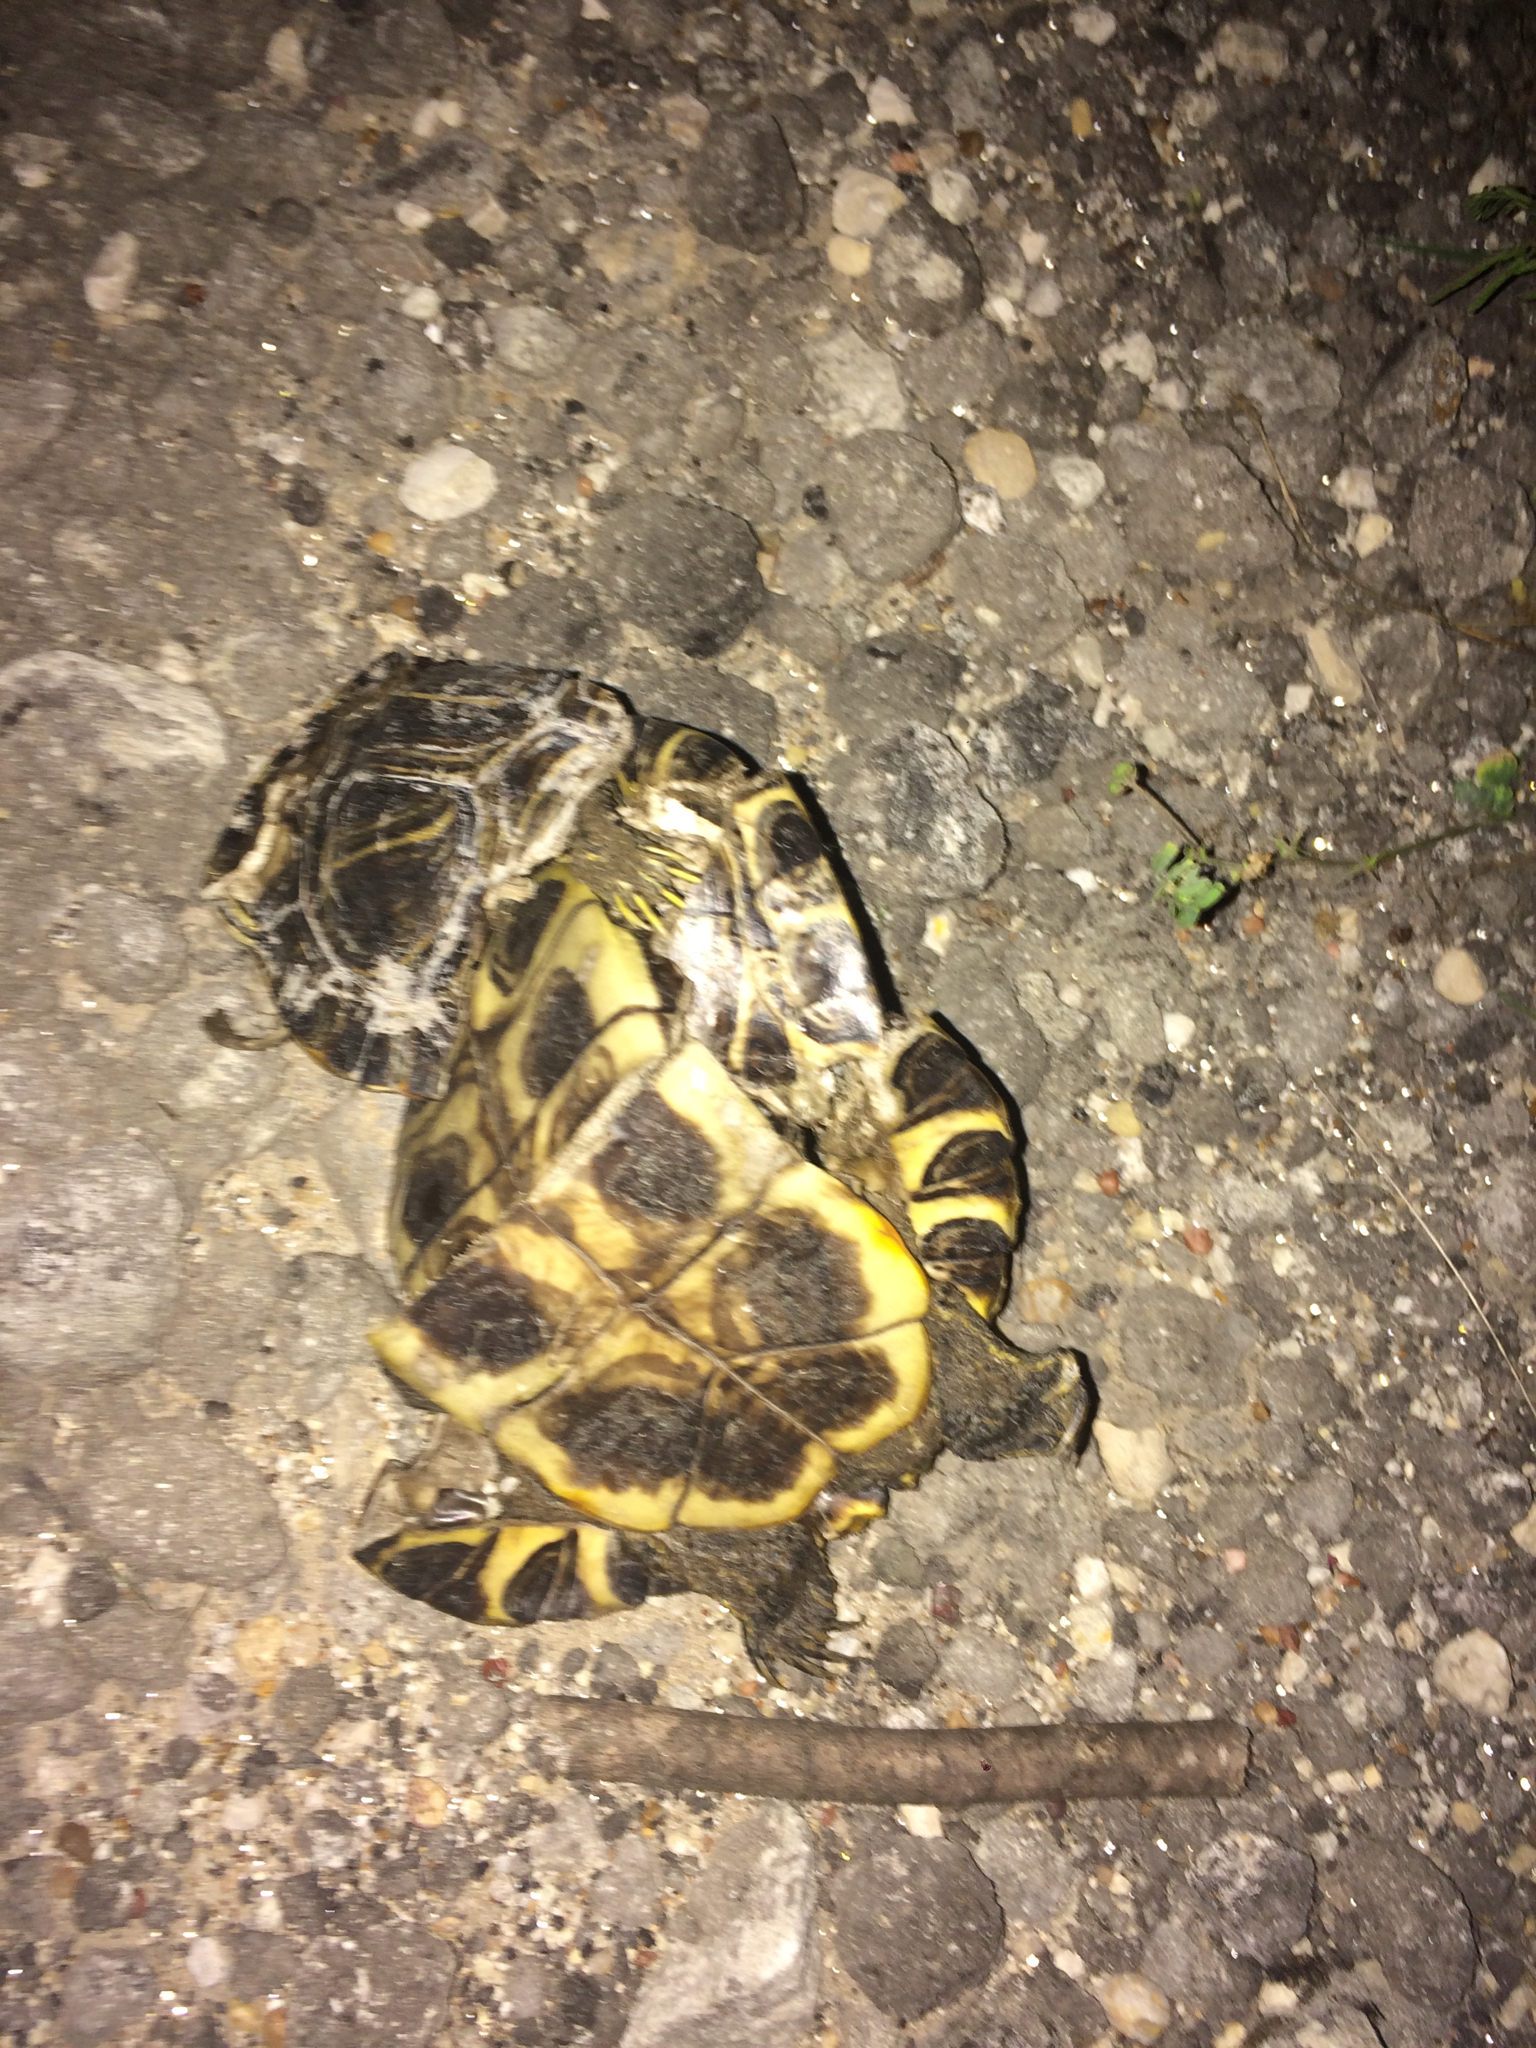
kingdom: Animalia
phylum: Chordata
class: Testudines
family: Emydidae
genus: Trachemys
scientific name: Trachemys scripta
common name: Slider
